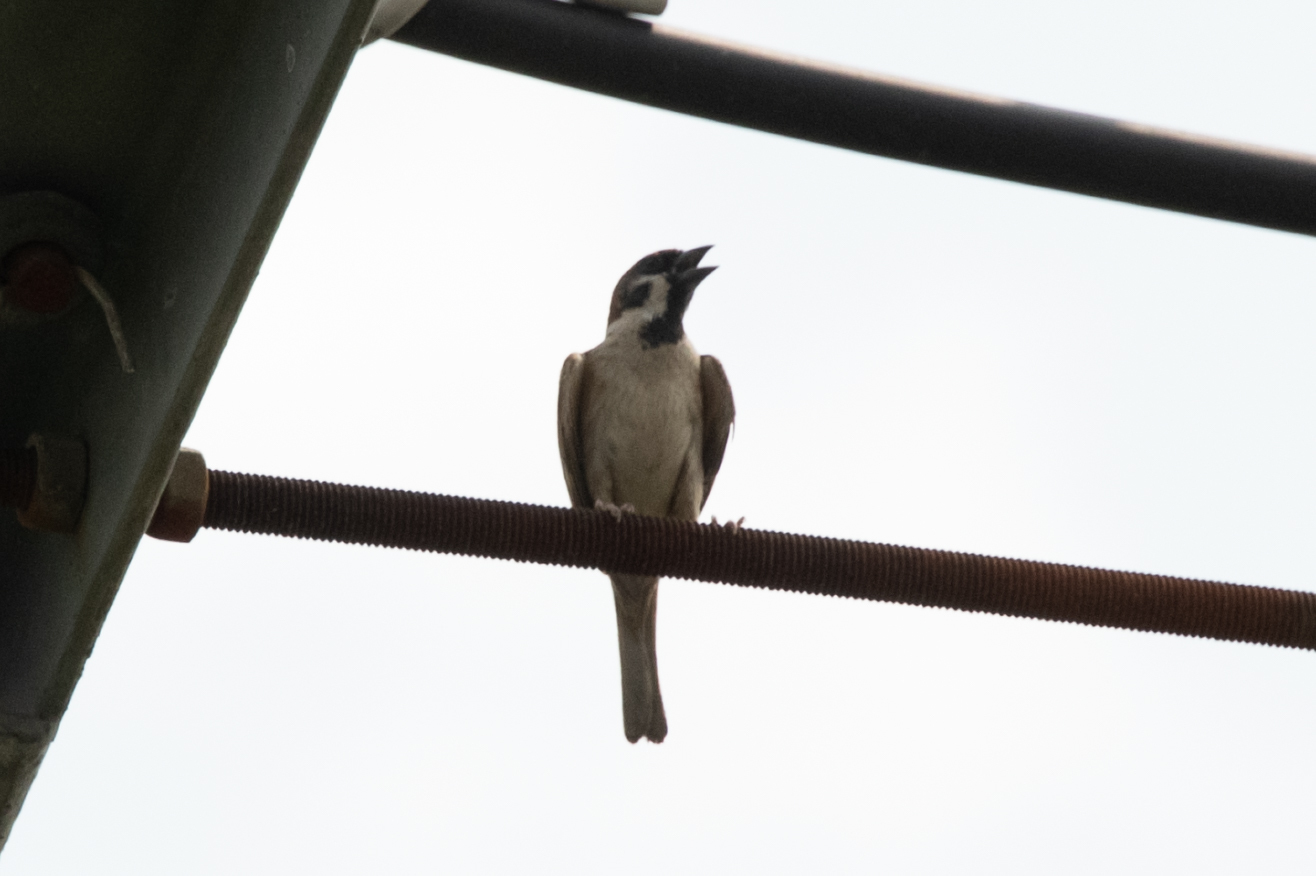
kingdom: Animalia
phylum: Chordata
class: Aves
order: Passeriformes
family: Passeridae
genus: Passer
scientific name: Passer montanus
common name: Eurasian tree sparrow
